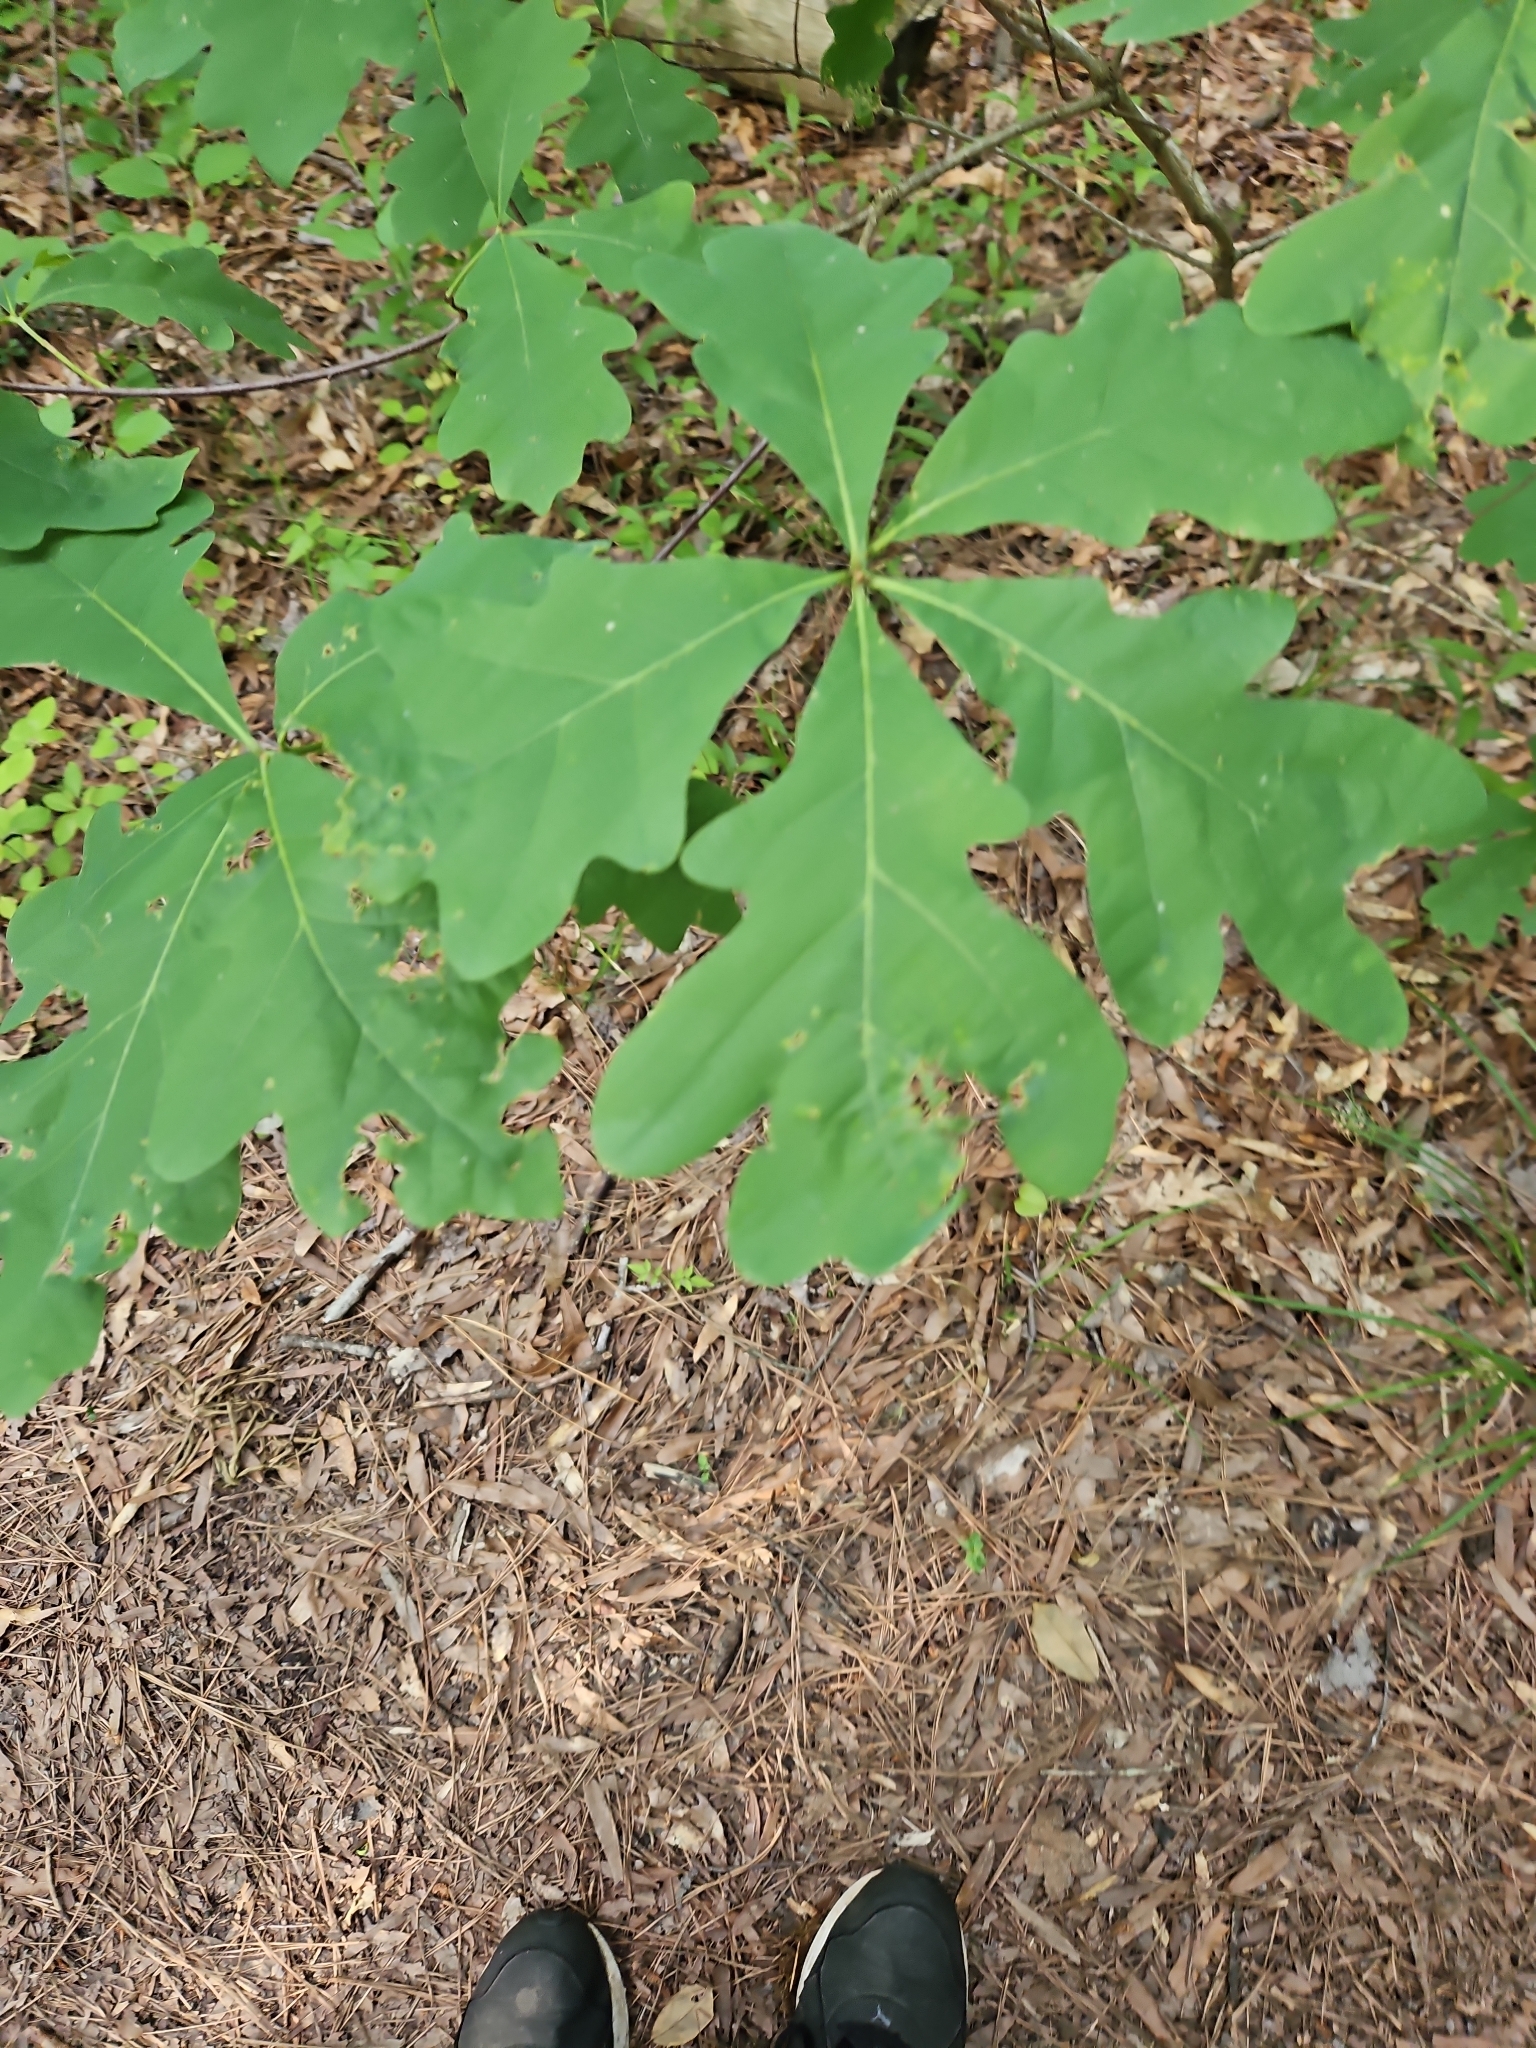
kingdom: Plantae
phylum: Tracheophyta
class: Magnoliopsida
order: Fagales
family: Fagaceae
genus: Quercus
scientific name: Quercus alba
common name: White oak
